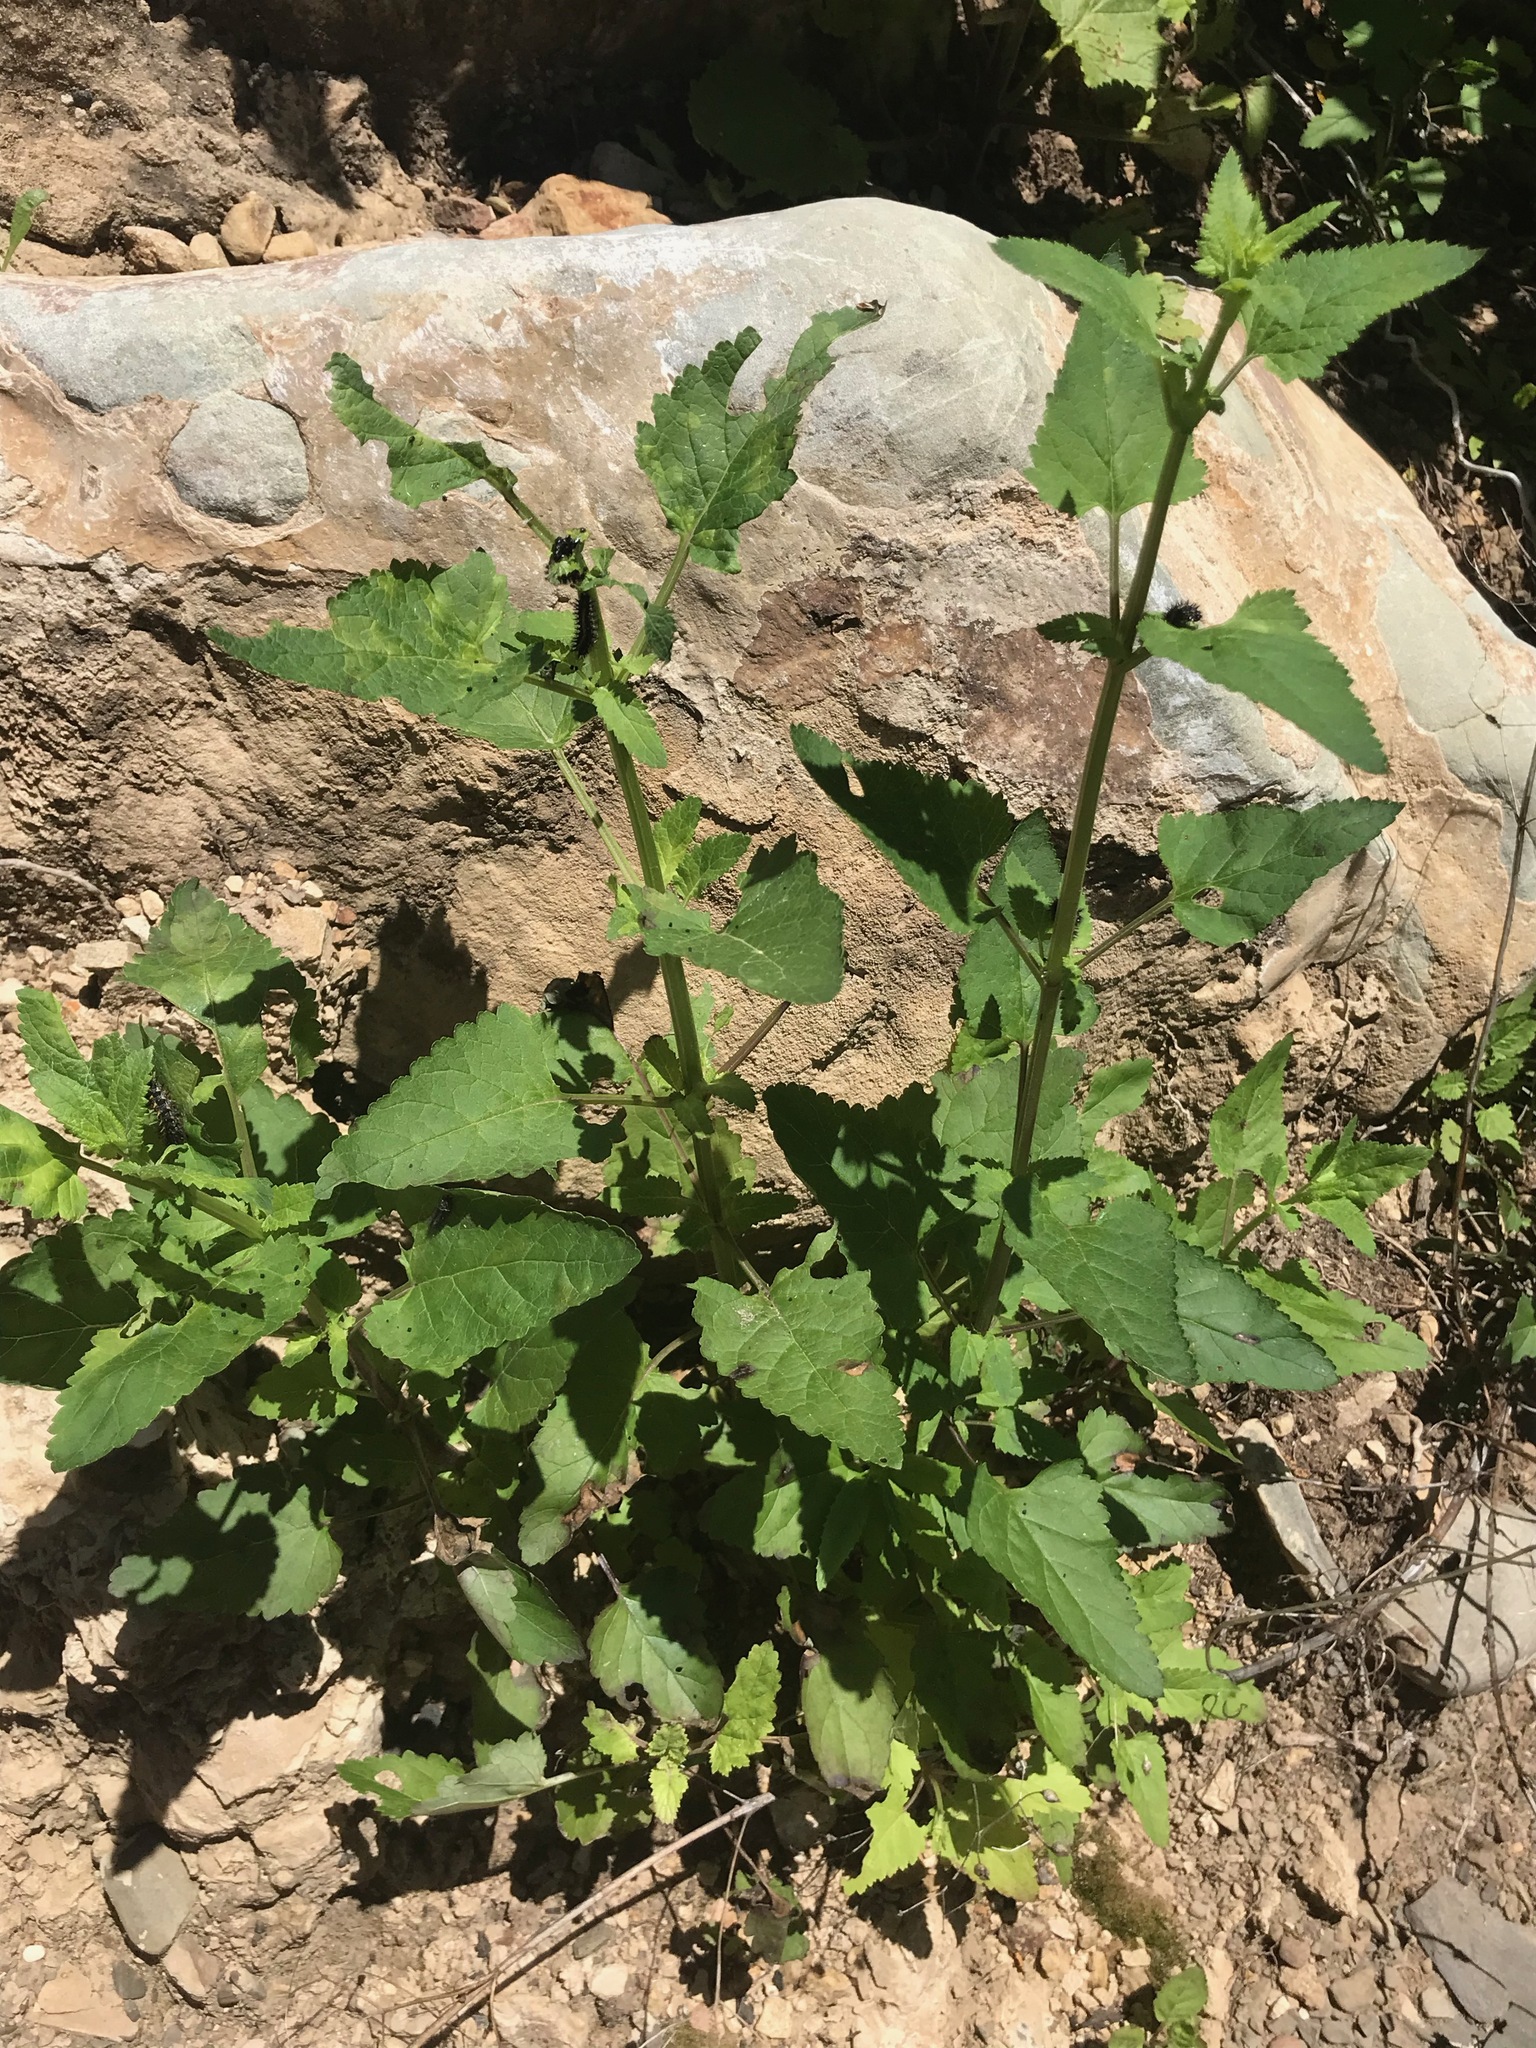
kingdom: Plantae
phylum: Tracheophyta
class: Magnoliopsida
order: Lamiales
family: Scrophulariaceae
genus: Scrophularia
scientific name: Scrophularia californica
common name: California figwort
